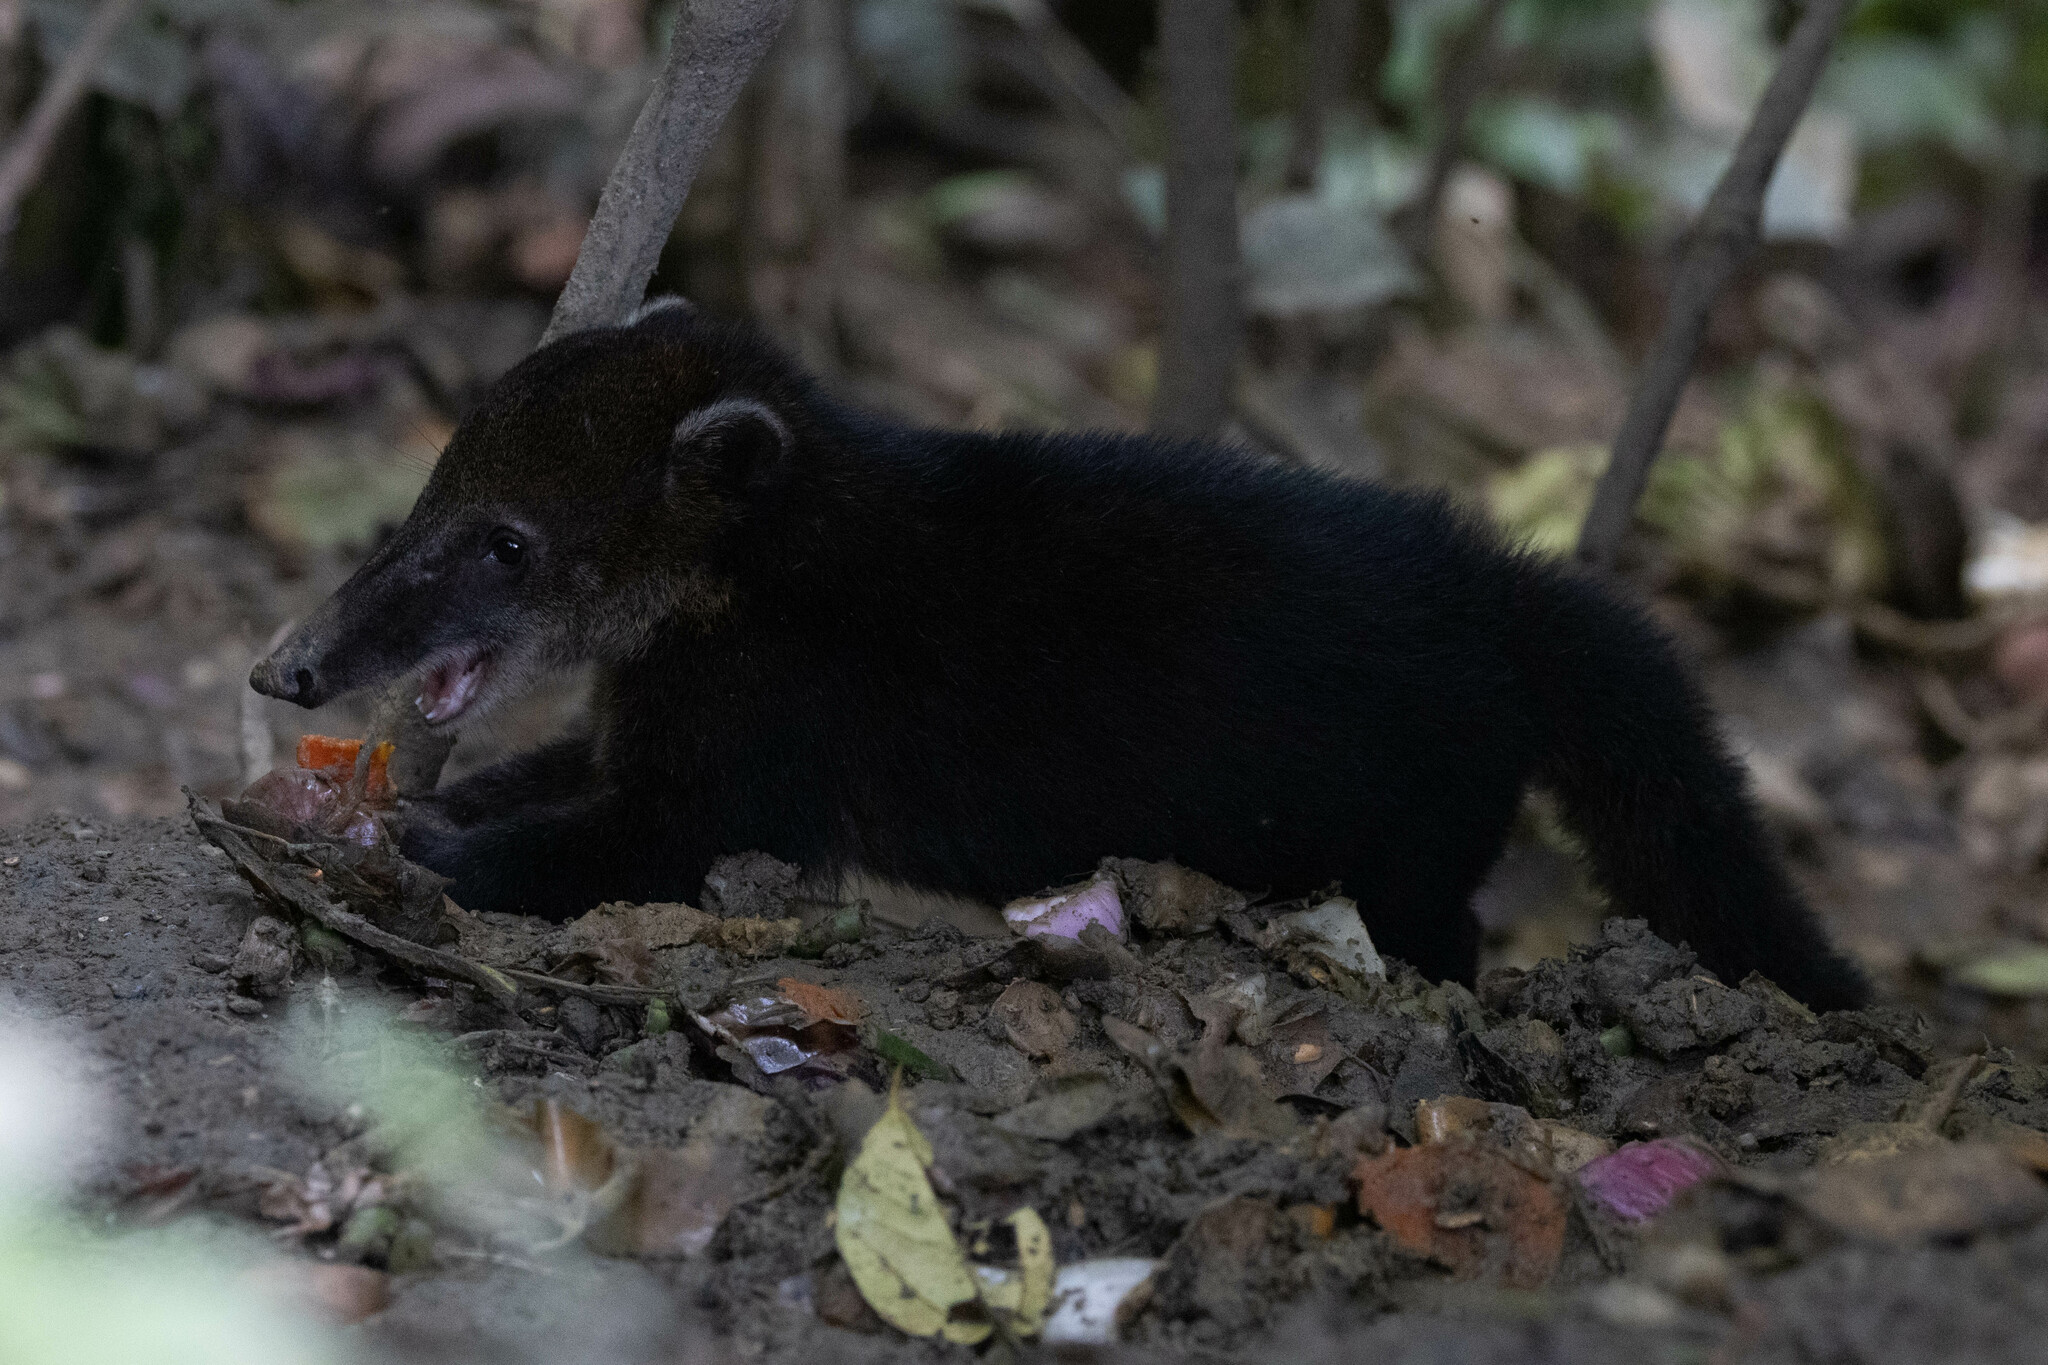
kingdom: Animalia
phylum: Chordata
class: Mammalia
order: Carnivora
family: Procyonidae
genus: Nasua
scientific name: Nasua nasua
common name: South american coati
